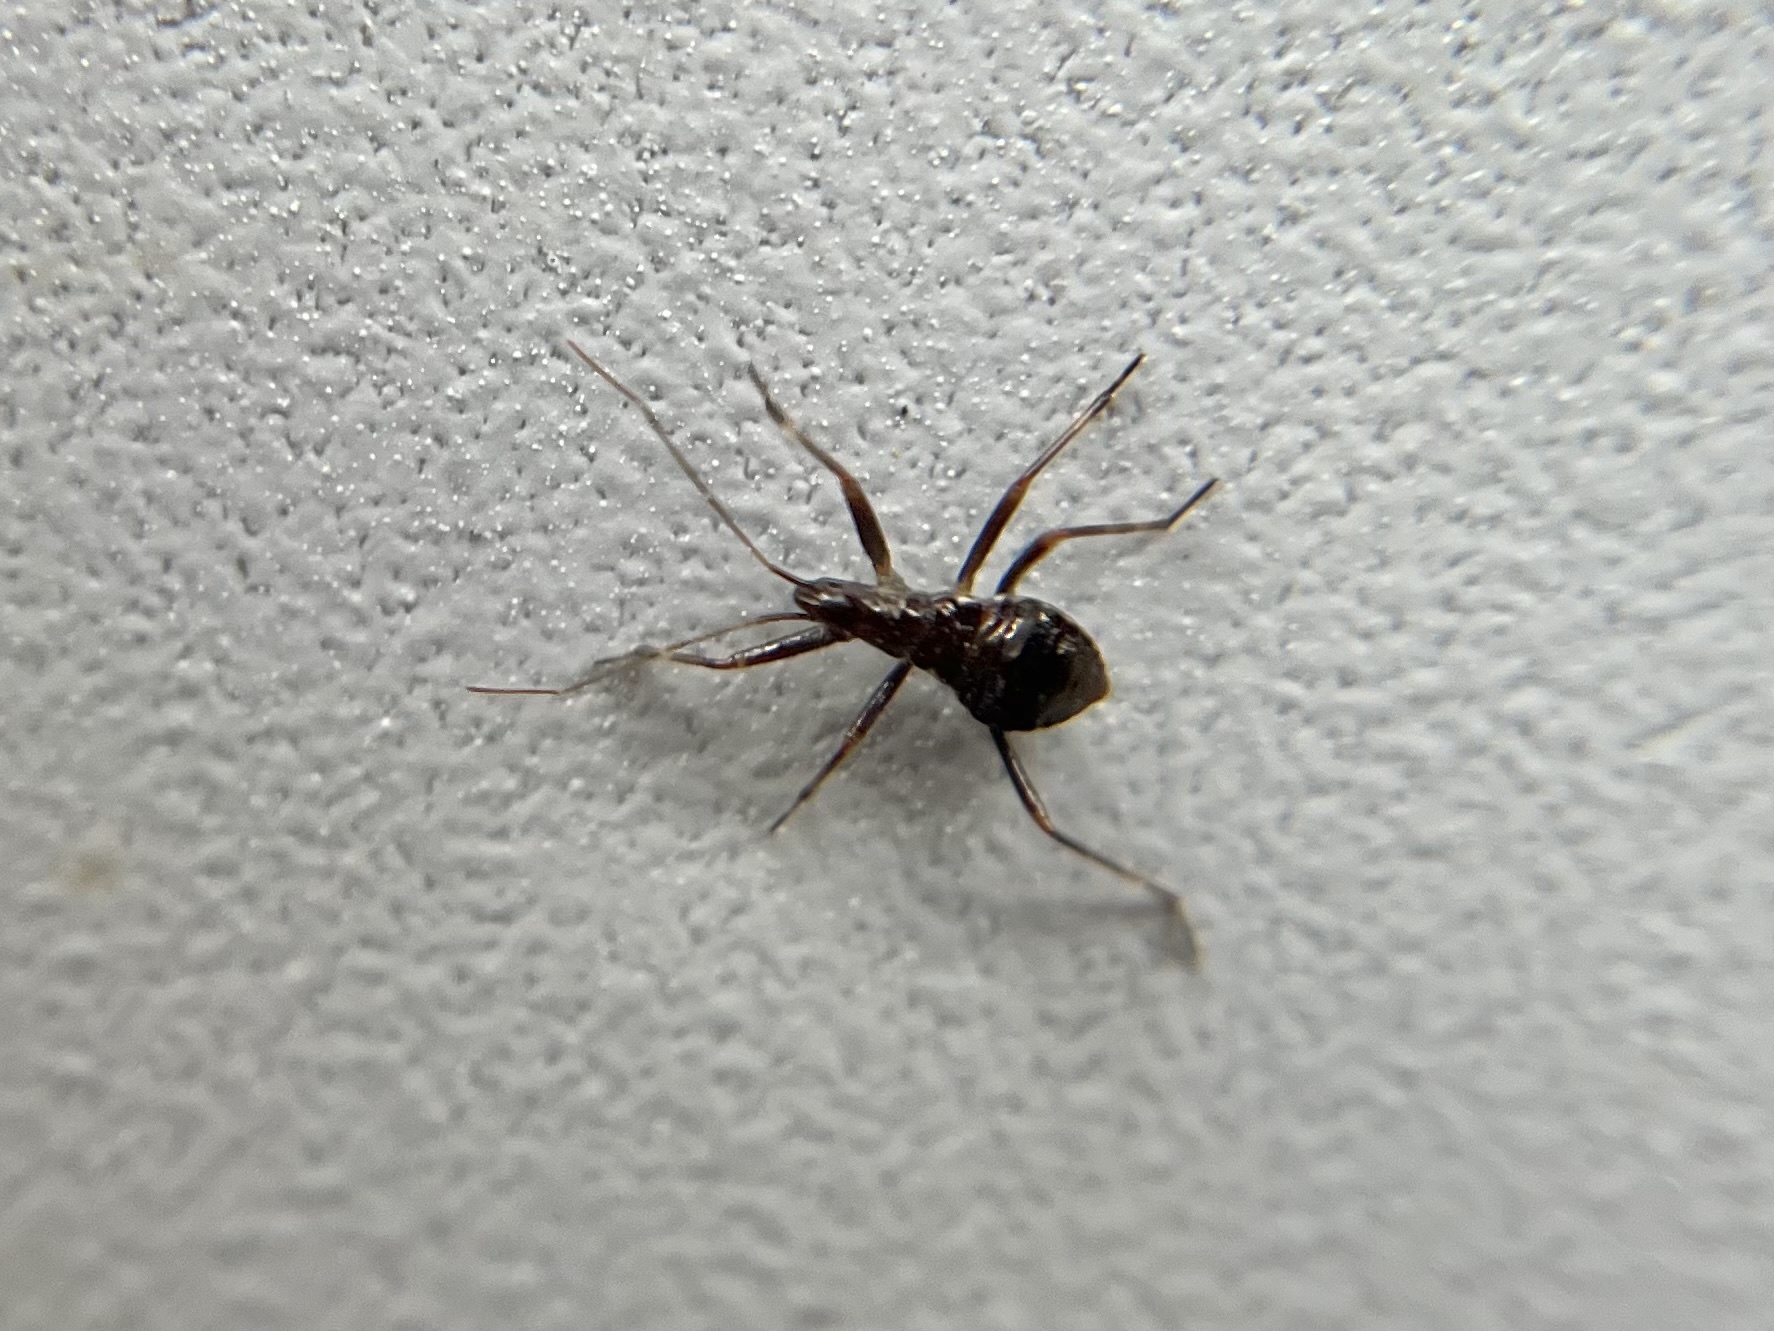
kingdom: Animalia
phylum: Arthropoda
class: Insecta
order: Hemiptera
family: Nabidae
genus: Himacerus
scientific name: Himacerus apterus
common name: Tree damsel bug
